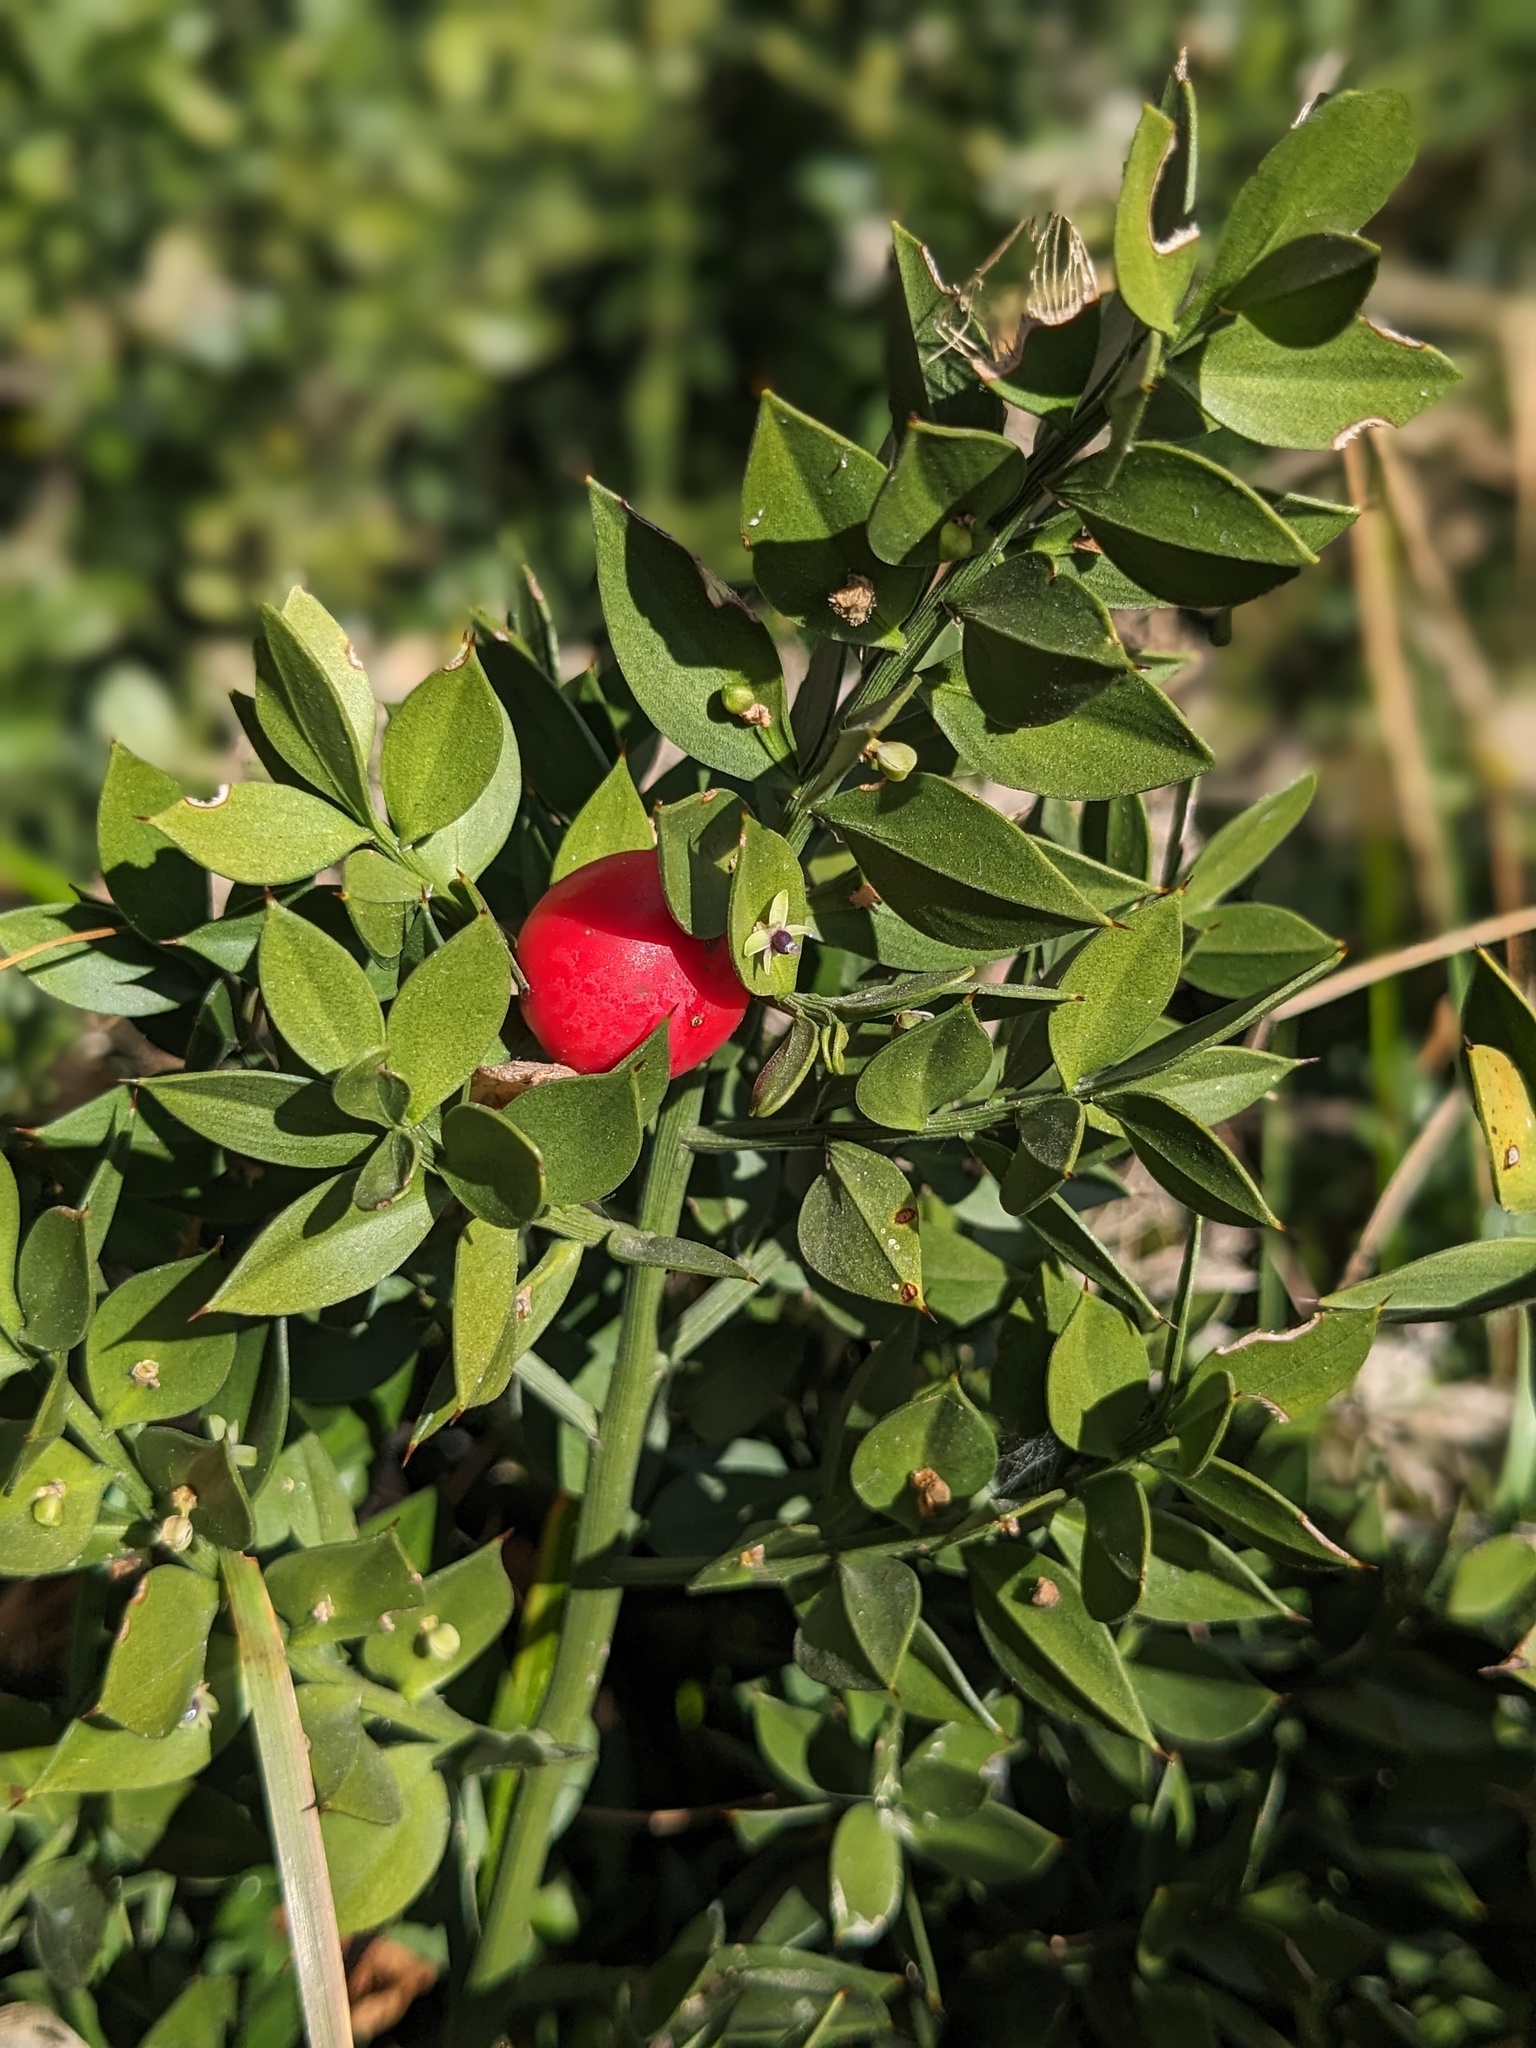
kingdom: Plantae
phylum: Tracheophyta
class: Liliopsida
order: Asparagales
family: Asparagaceae
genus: Ruscus
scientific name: Ruscus aculeatus
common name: Butcher's-broom
